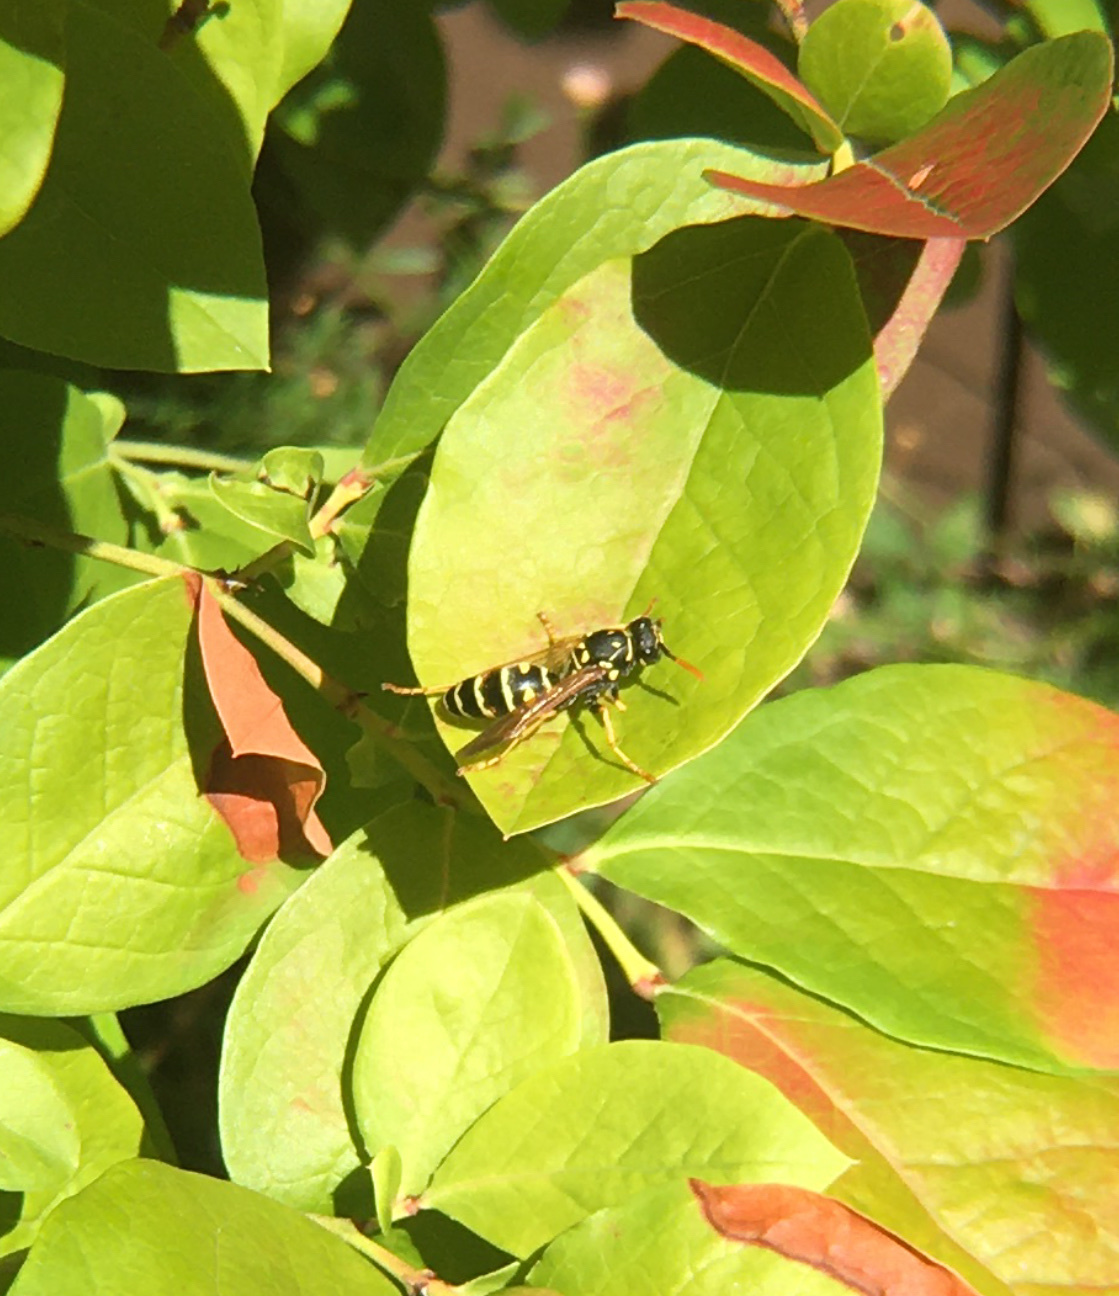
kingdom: Animalia
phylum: Arthropoda
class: Insecta
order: Hymenoptera
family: Eumenidae
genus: Polistes
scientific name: Polistes dominula
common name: Paper wasp
